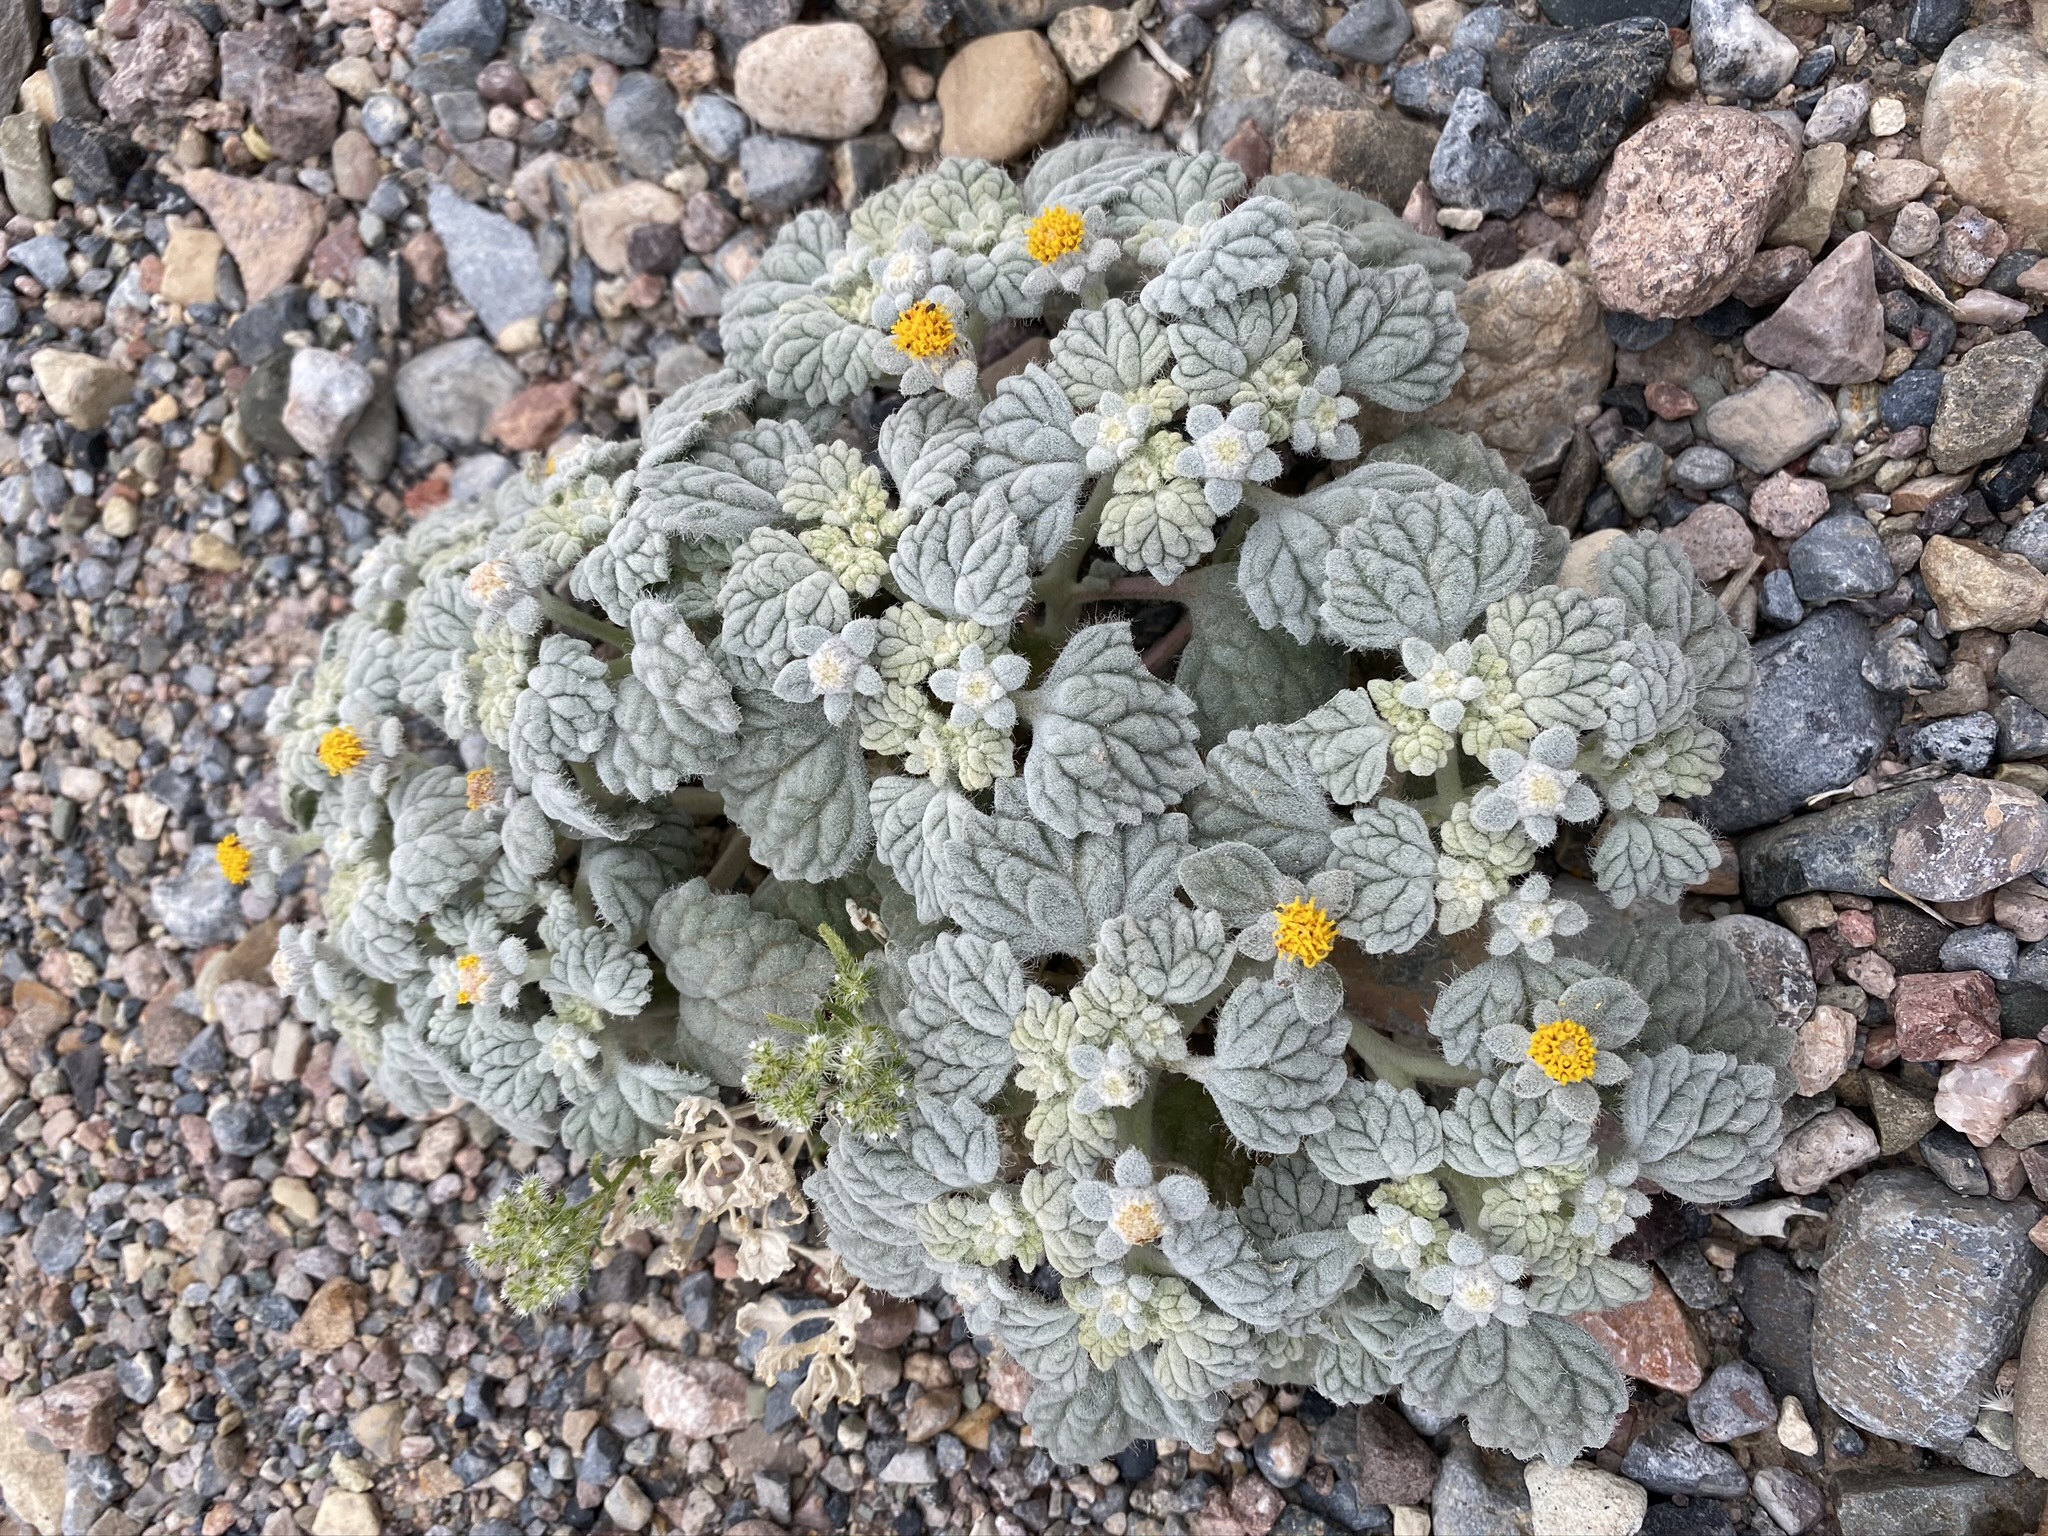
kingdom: Plantae
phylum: Tracheophyta
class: Magnoliopsida
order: Asterales
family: Asteraceae
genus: Psathyrotes
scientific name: Psathyrotes ramosissima
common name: Turtleback
